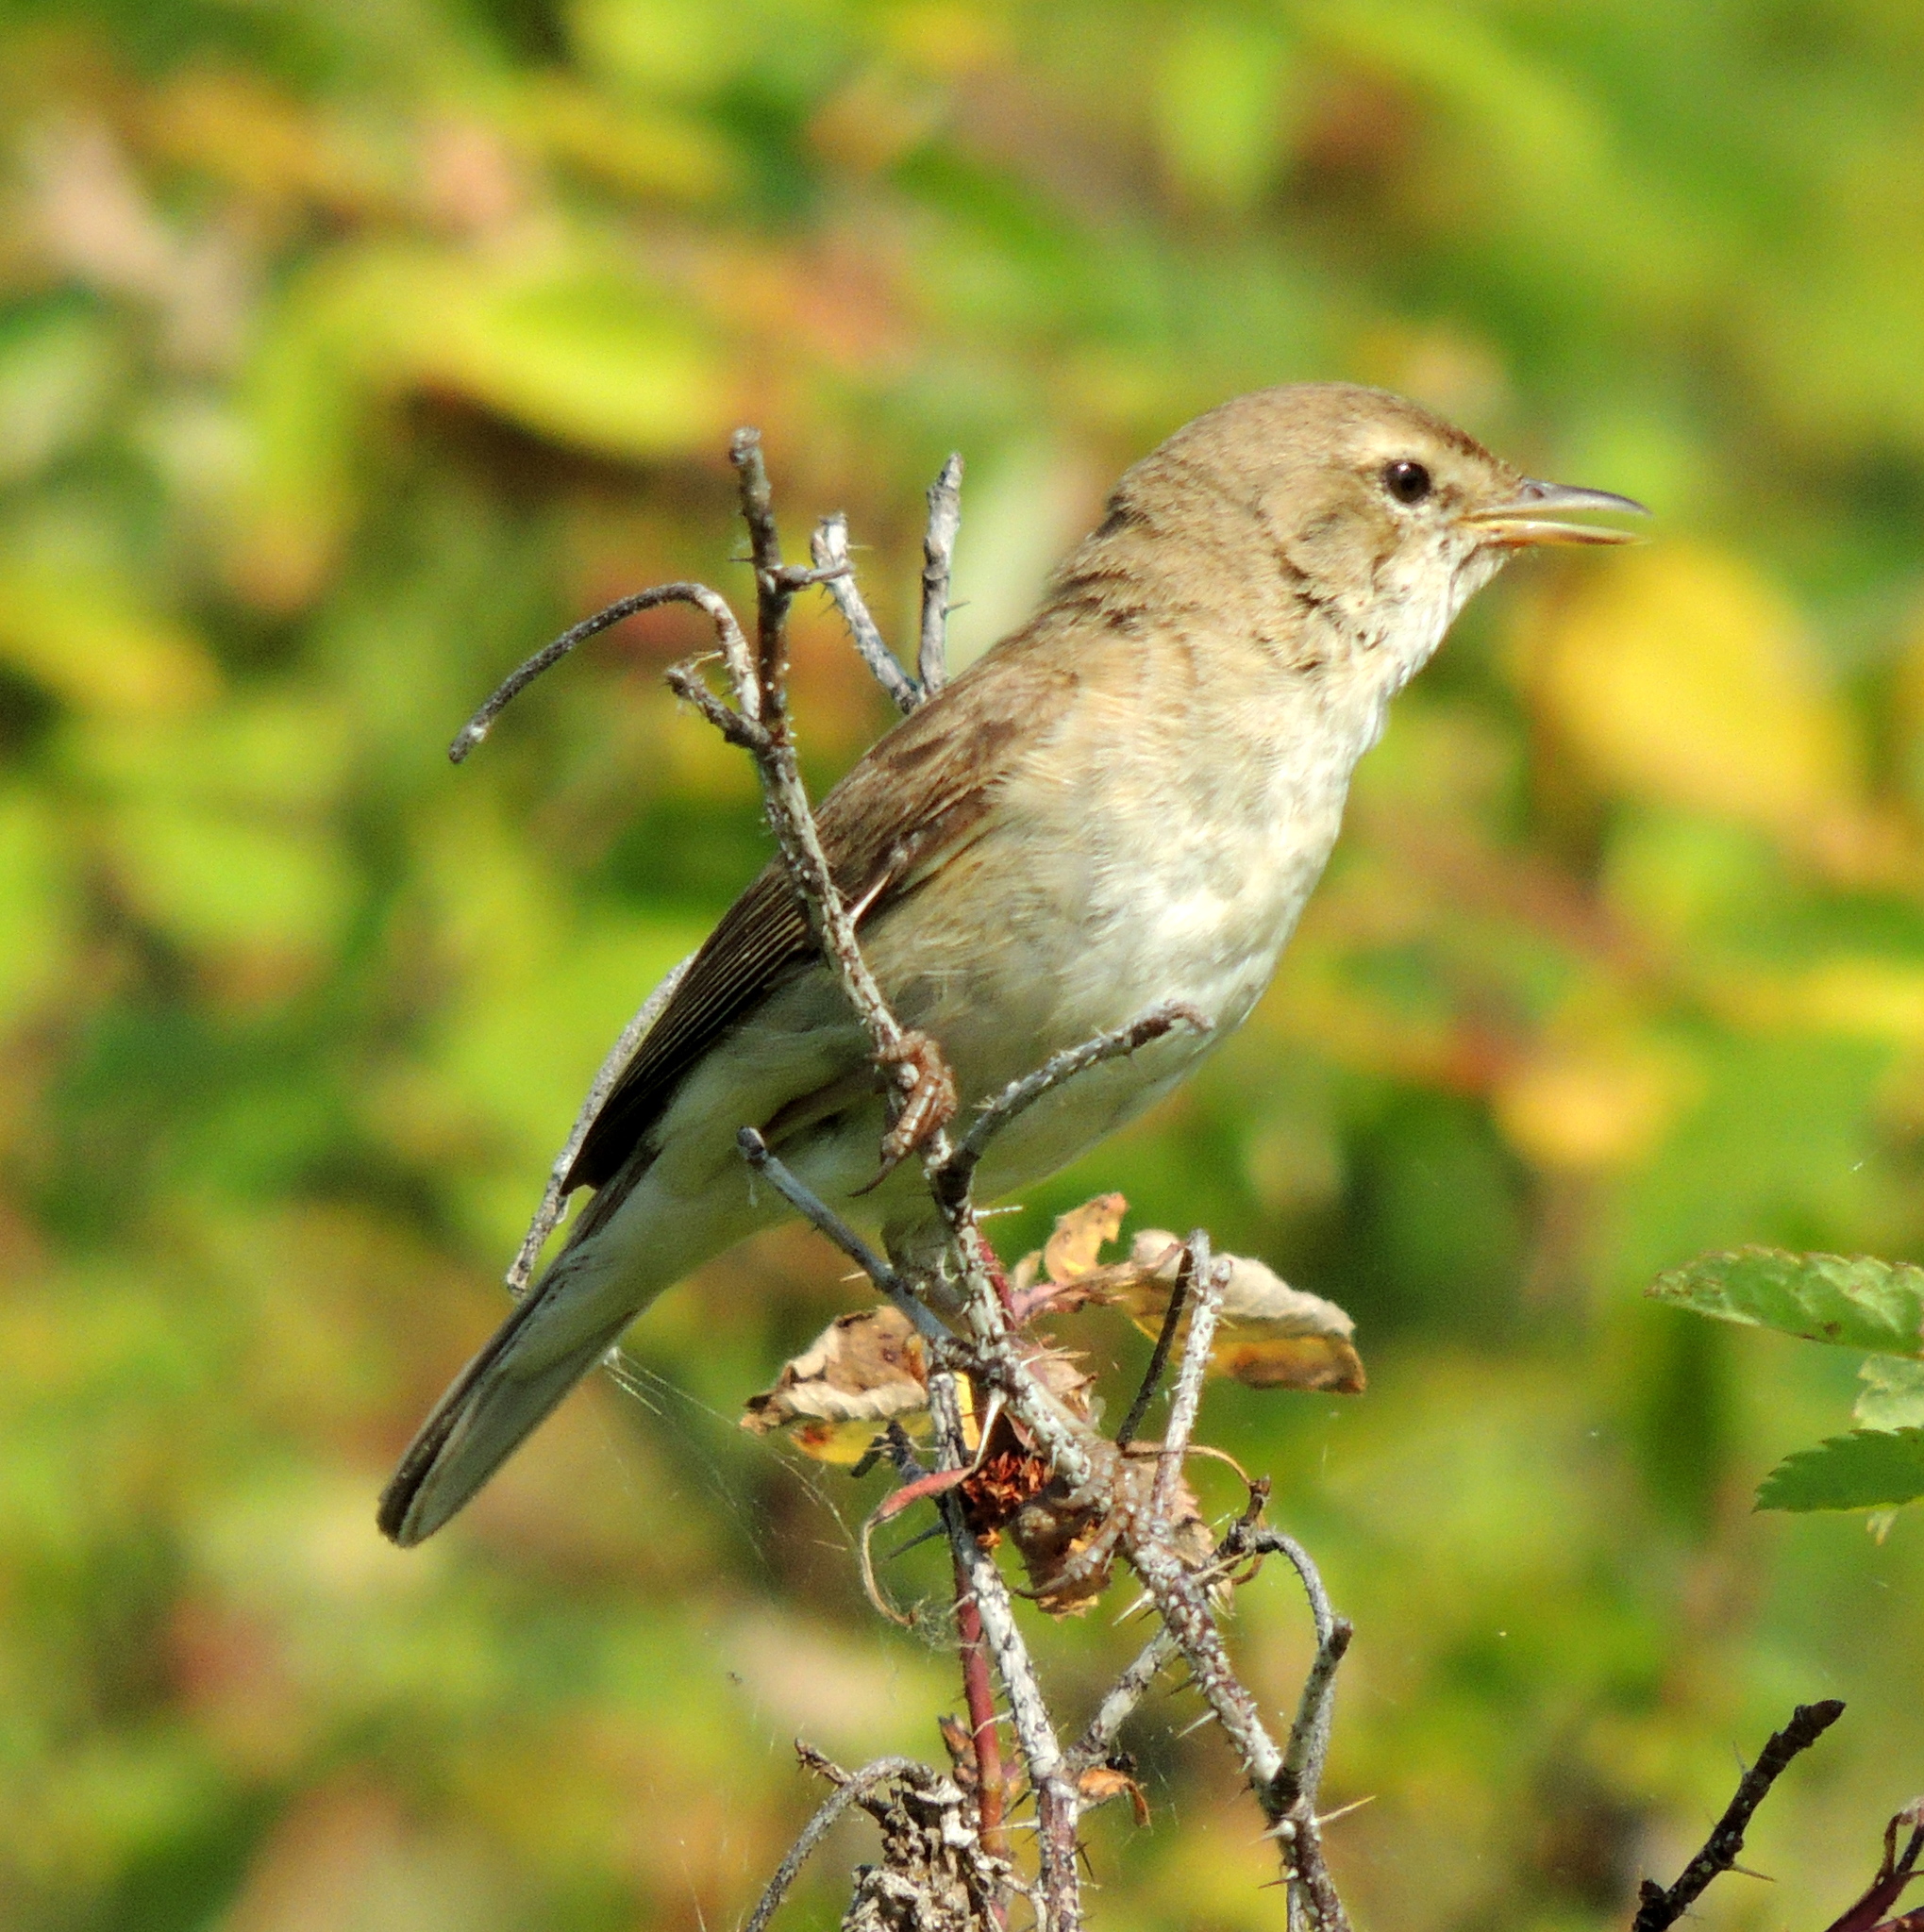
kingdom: Animalia
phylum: Chordata
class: Aves
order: Passeriformes
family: Acrocephalidae
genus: Iduna
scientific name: Iduna caligata
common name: Booted warbler
